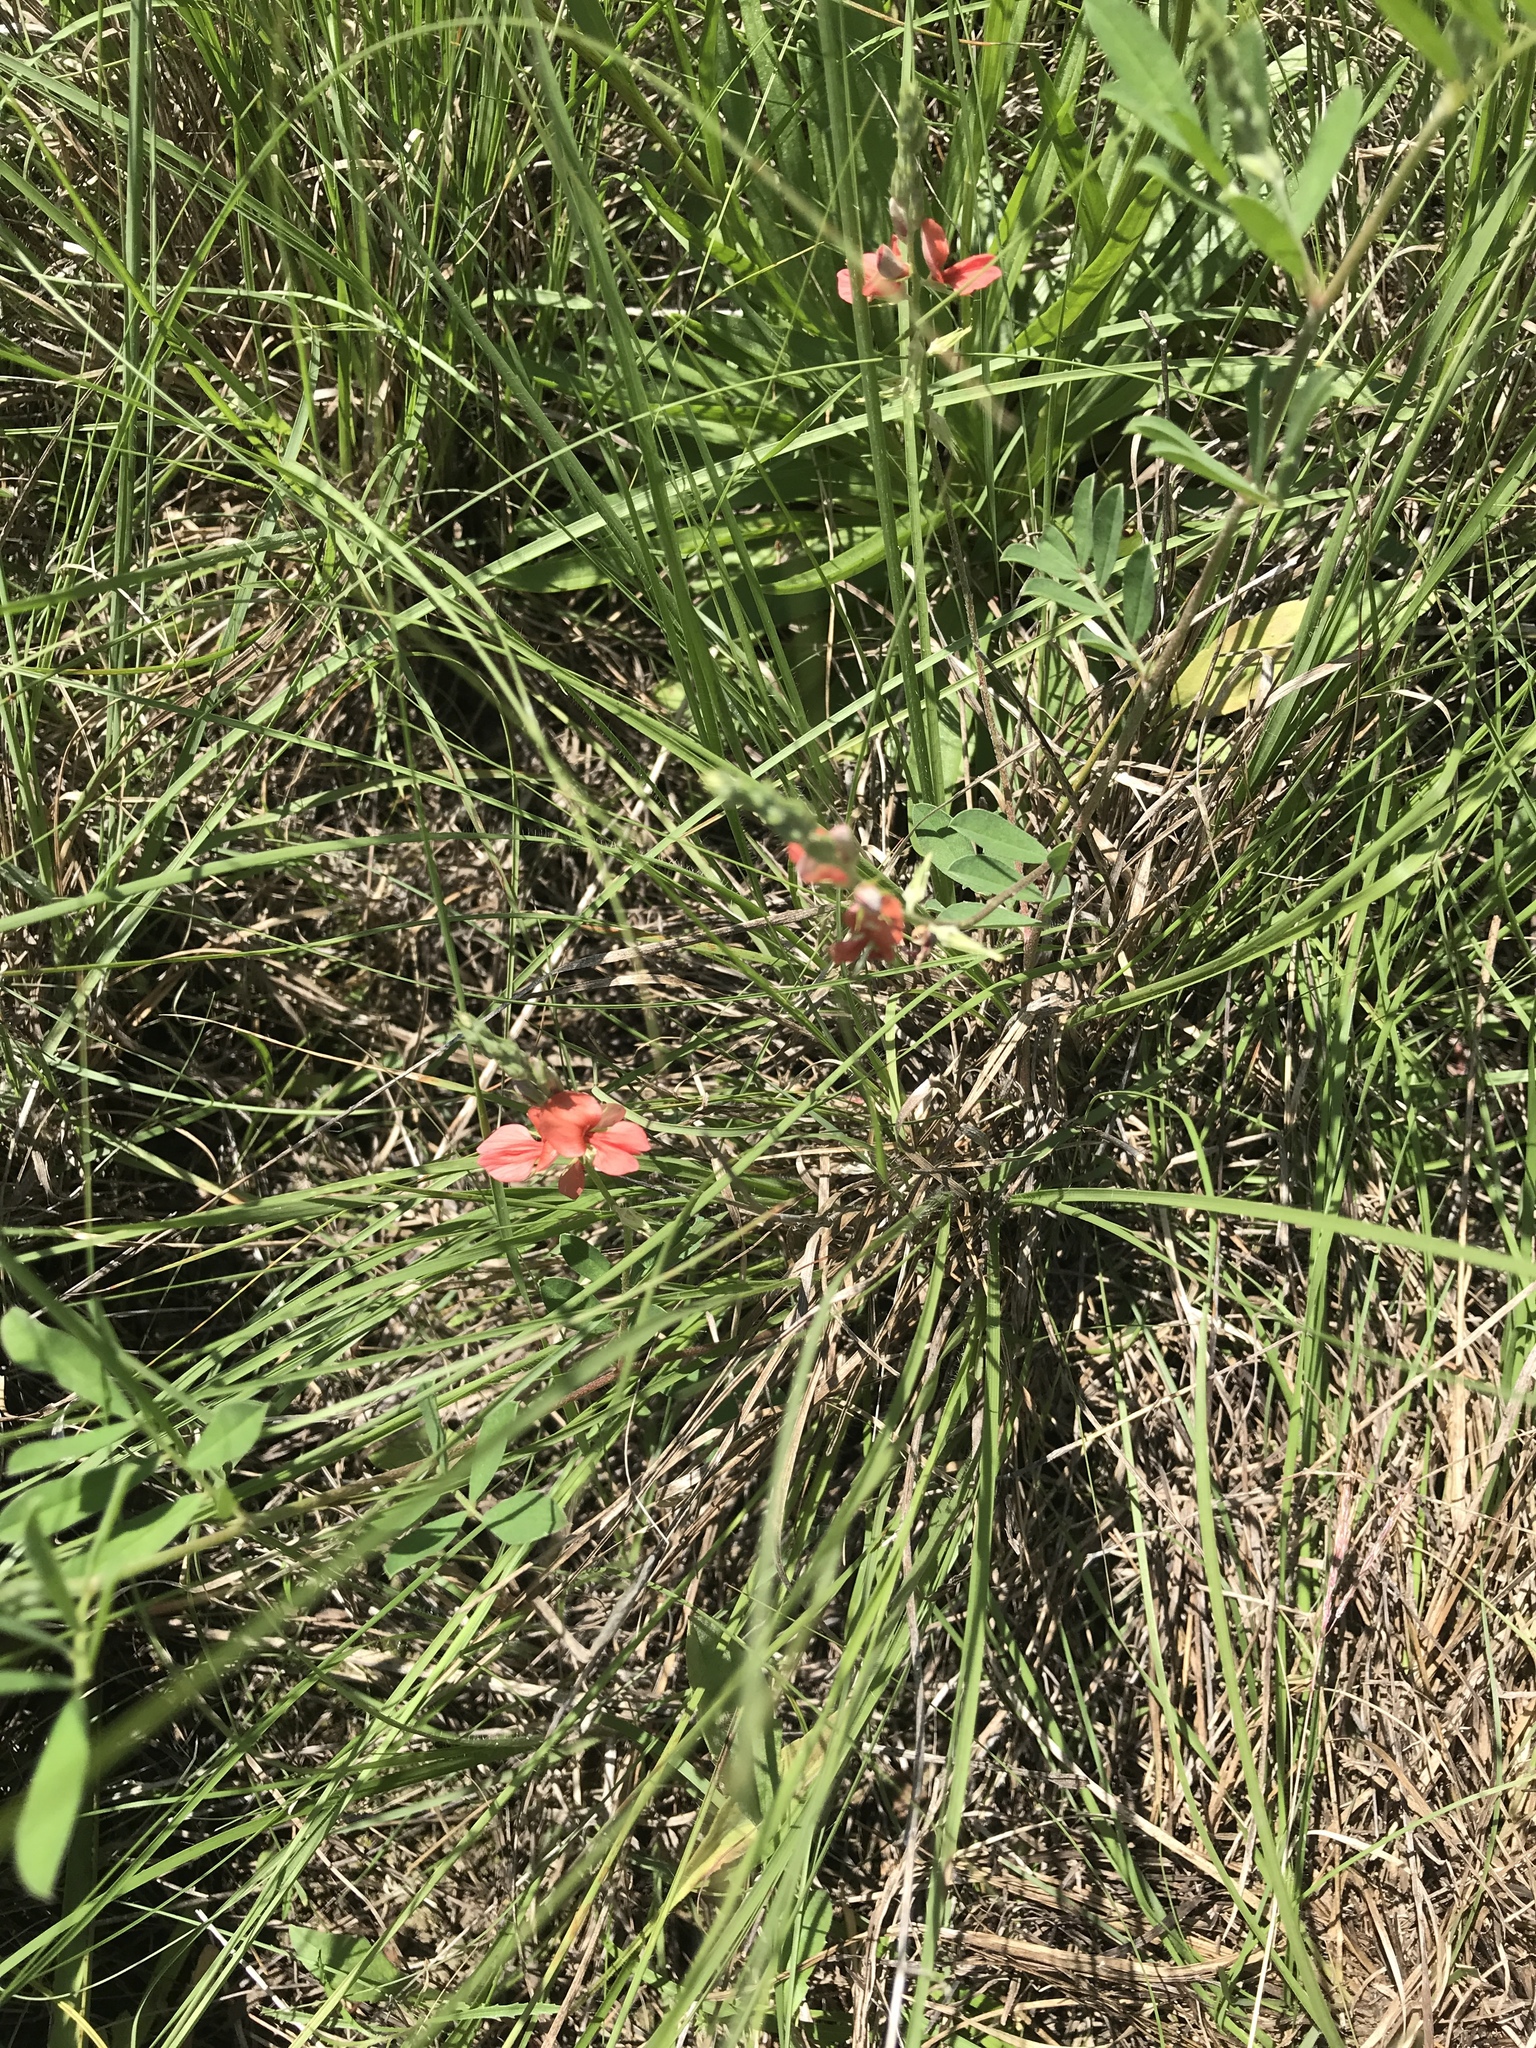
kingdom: Plantae
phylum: Tracheophyta
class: Magnoliopsida
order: Fabales
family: Fabaceae
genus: Indigofera
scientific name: Indigofera miniata
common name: Coast indigo
